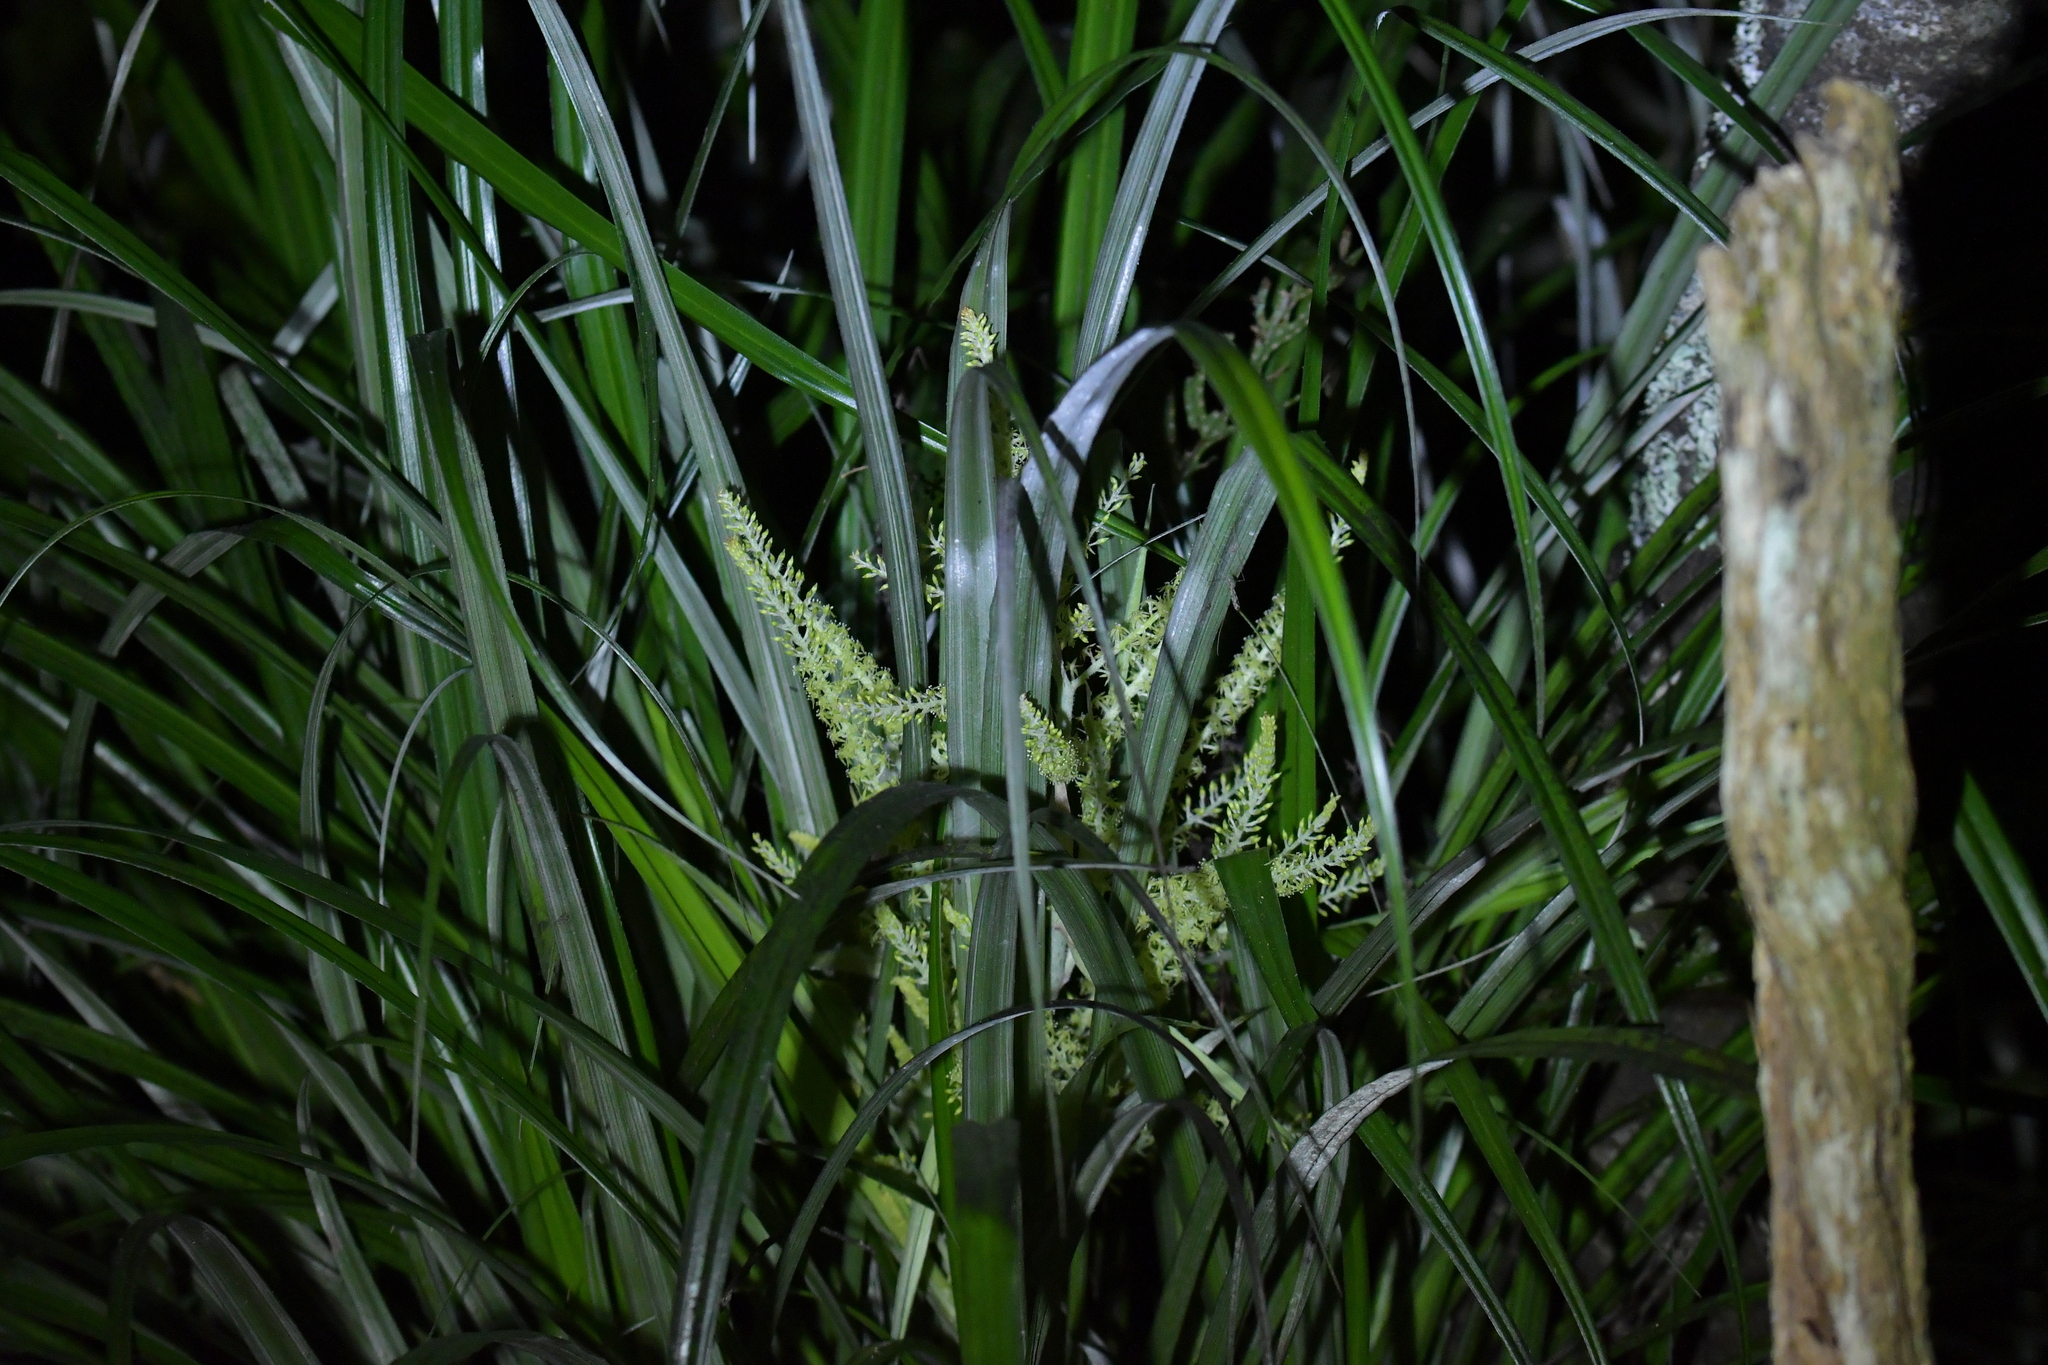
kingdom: Plantae
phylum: Tracheophyta
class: Liliopsida
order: Asparagales
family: Asteliaceae
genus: Astelia
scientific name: Astelia solandri
